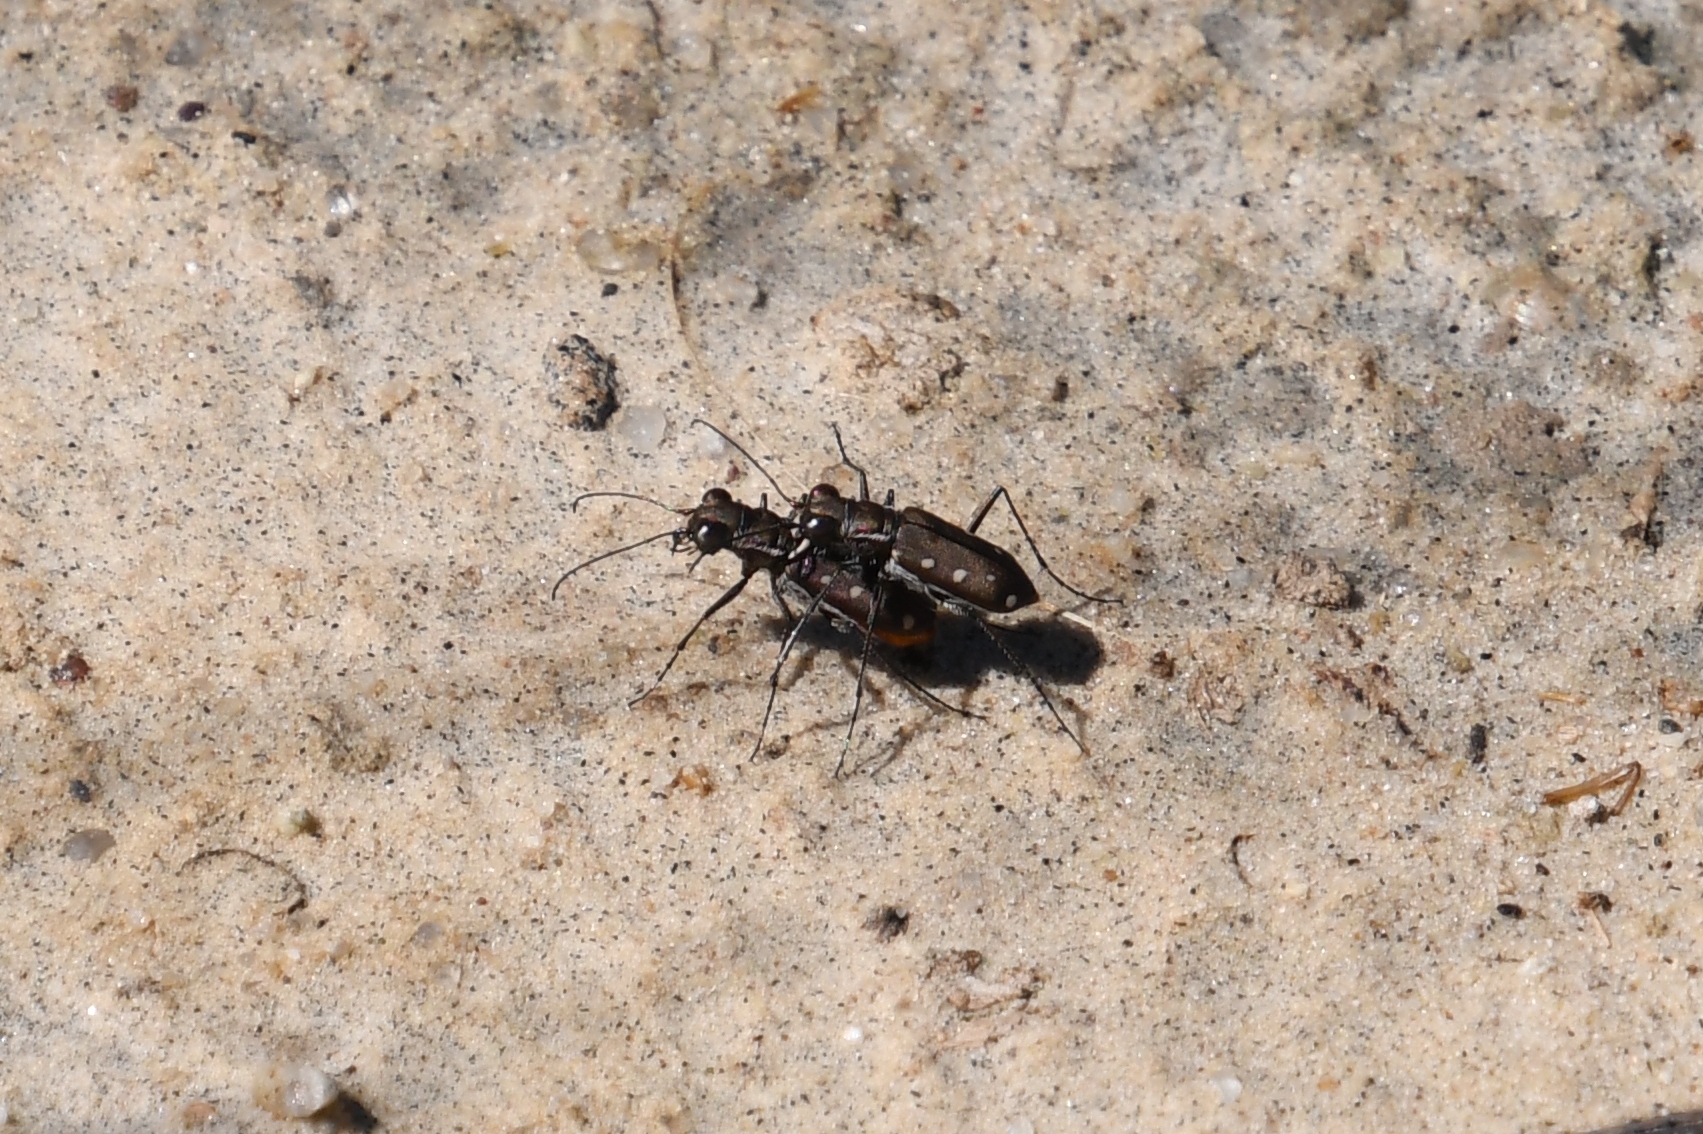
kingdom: Animalia
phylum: Arthropoda
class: Insecta
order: Coleoptera
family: Carabidae
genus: Cicindela
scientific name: Cicindela ocellata
